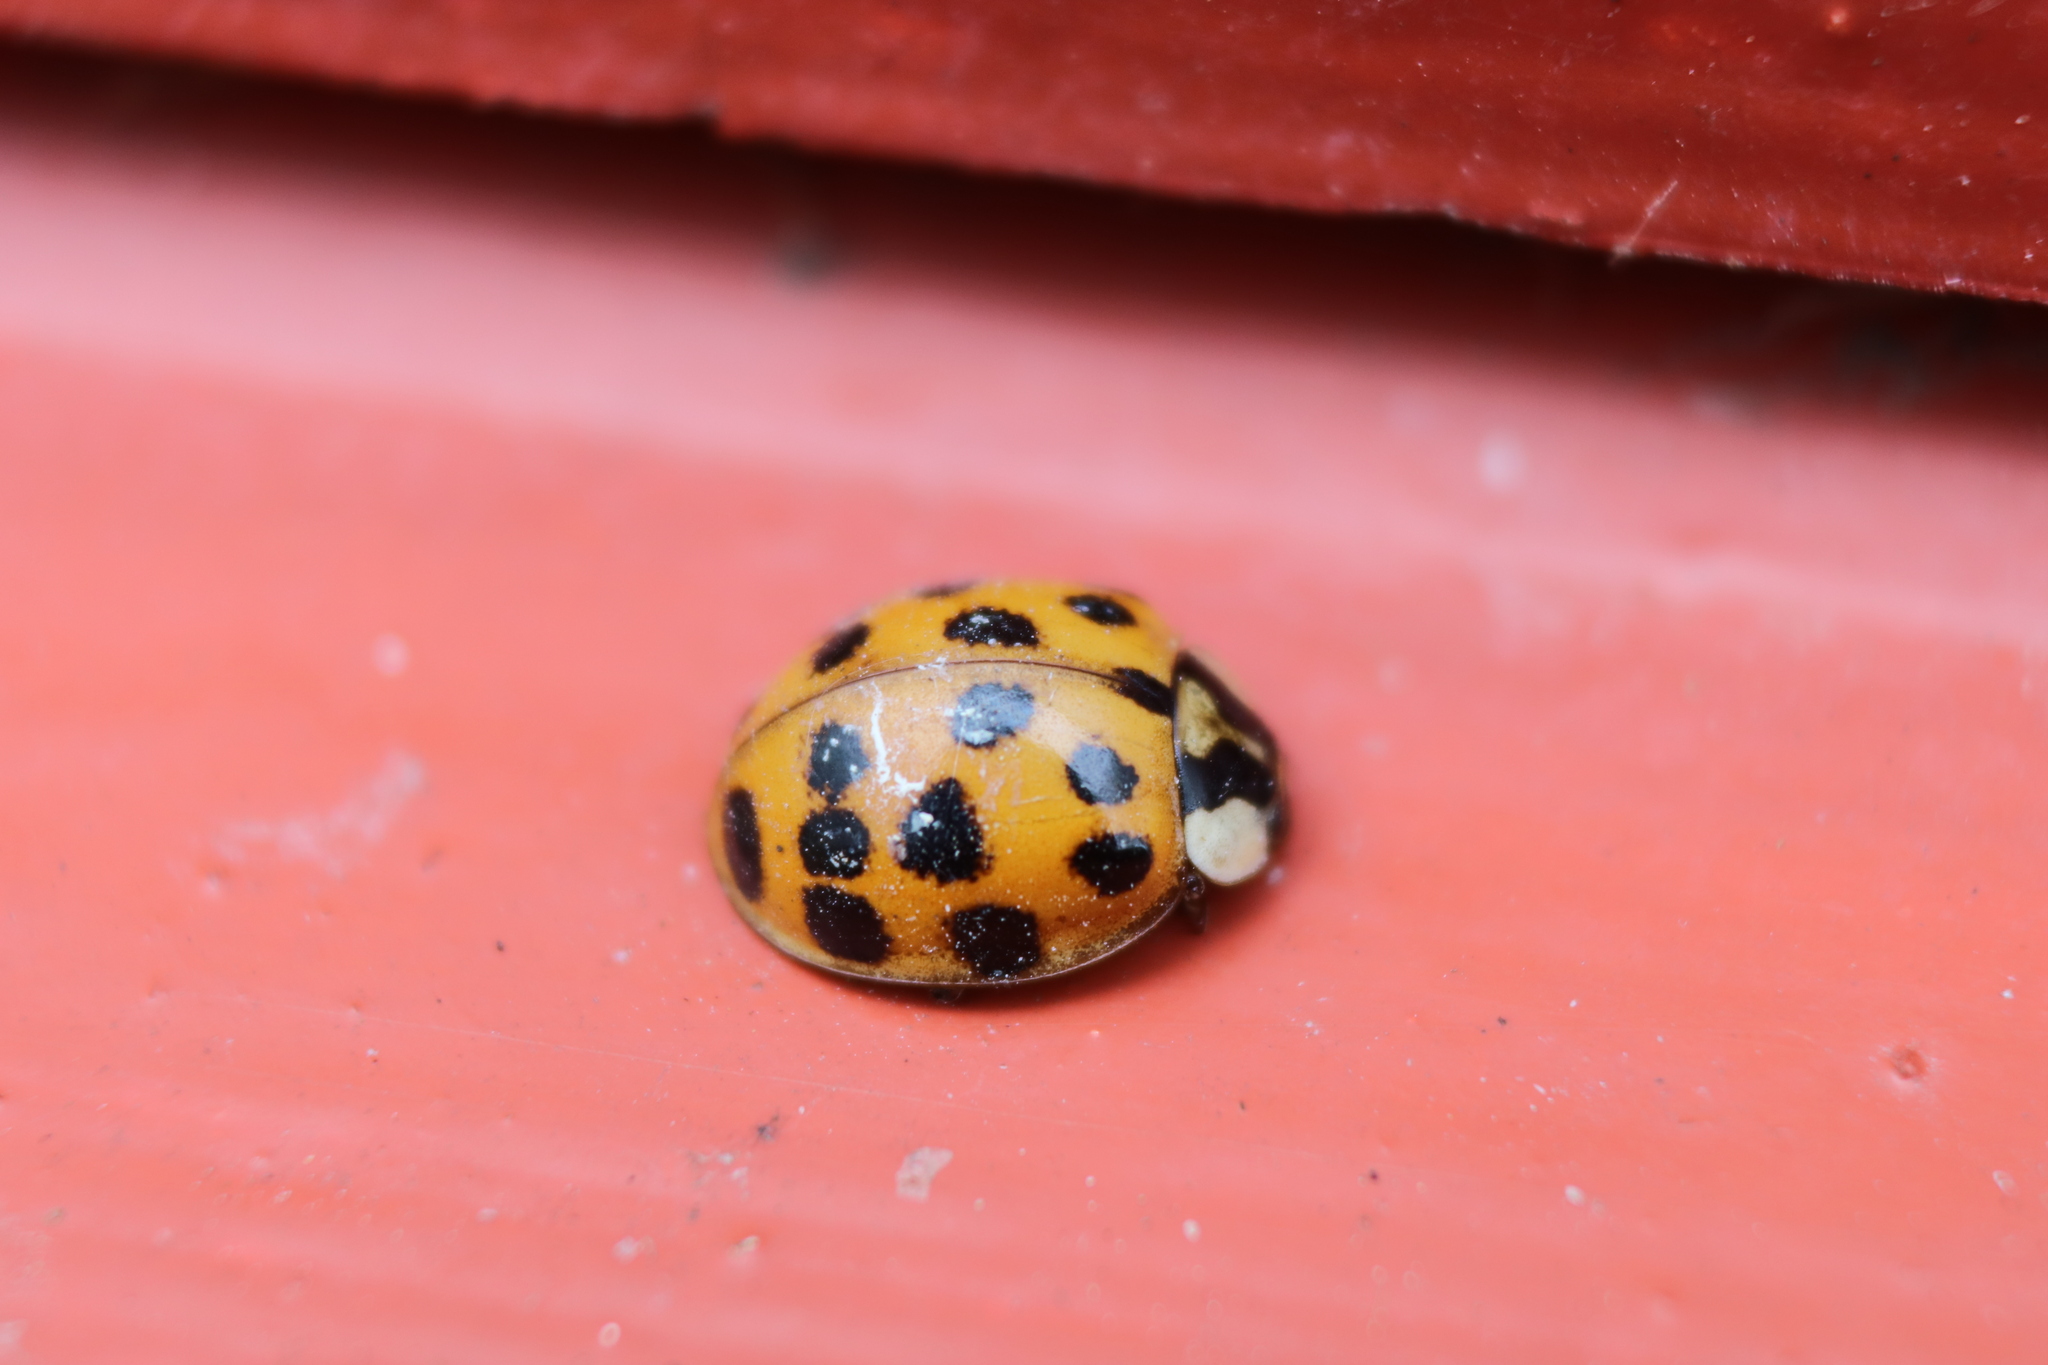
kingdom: Animalia
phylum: Arthropoda
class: Insecta
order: Coleoptera
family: Coccinellidae
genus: Harmonia
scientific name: Harmonia axyridis
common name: Harlequin ladybird
